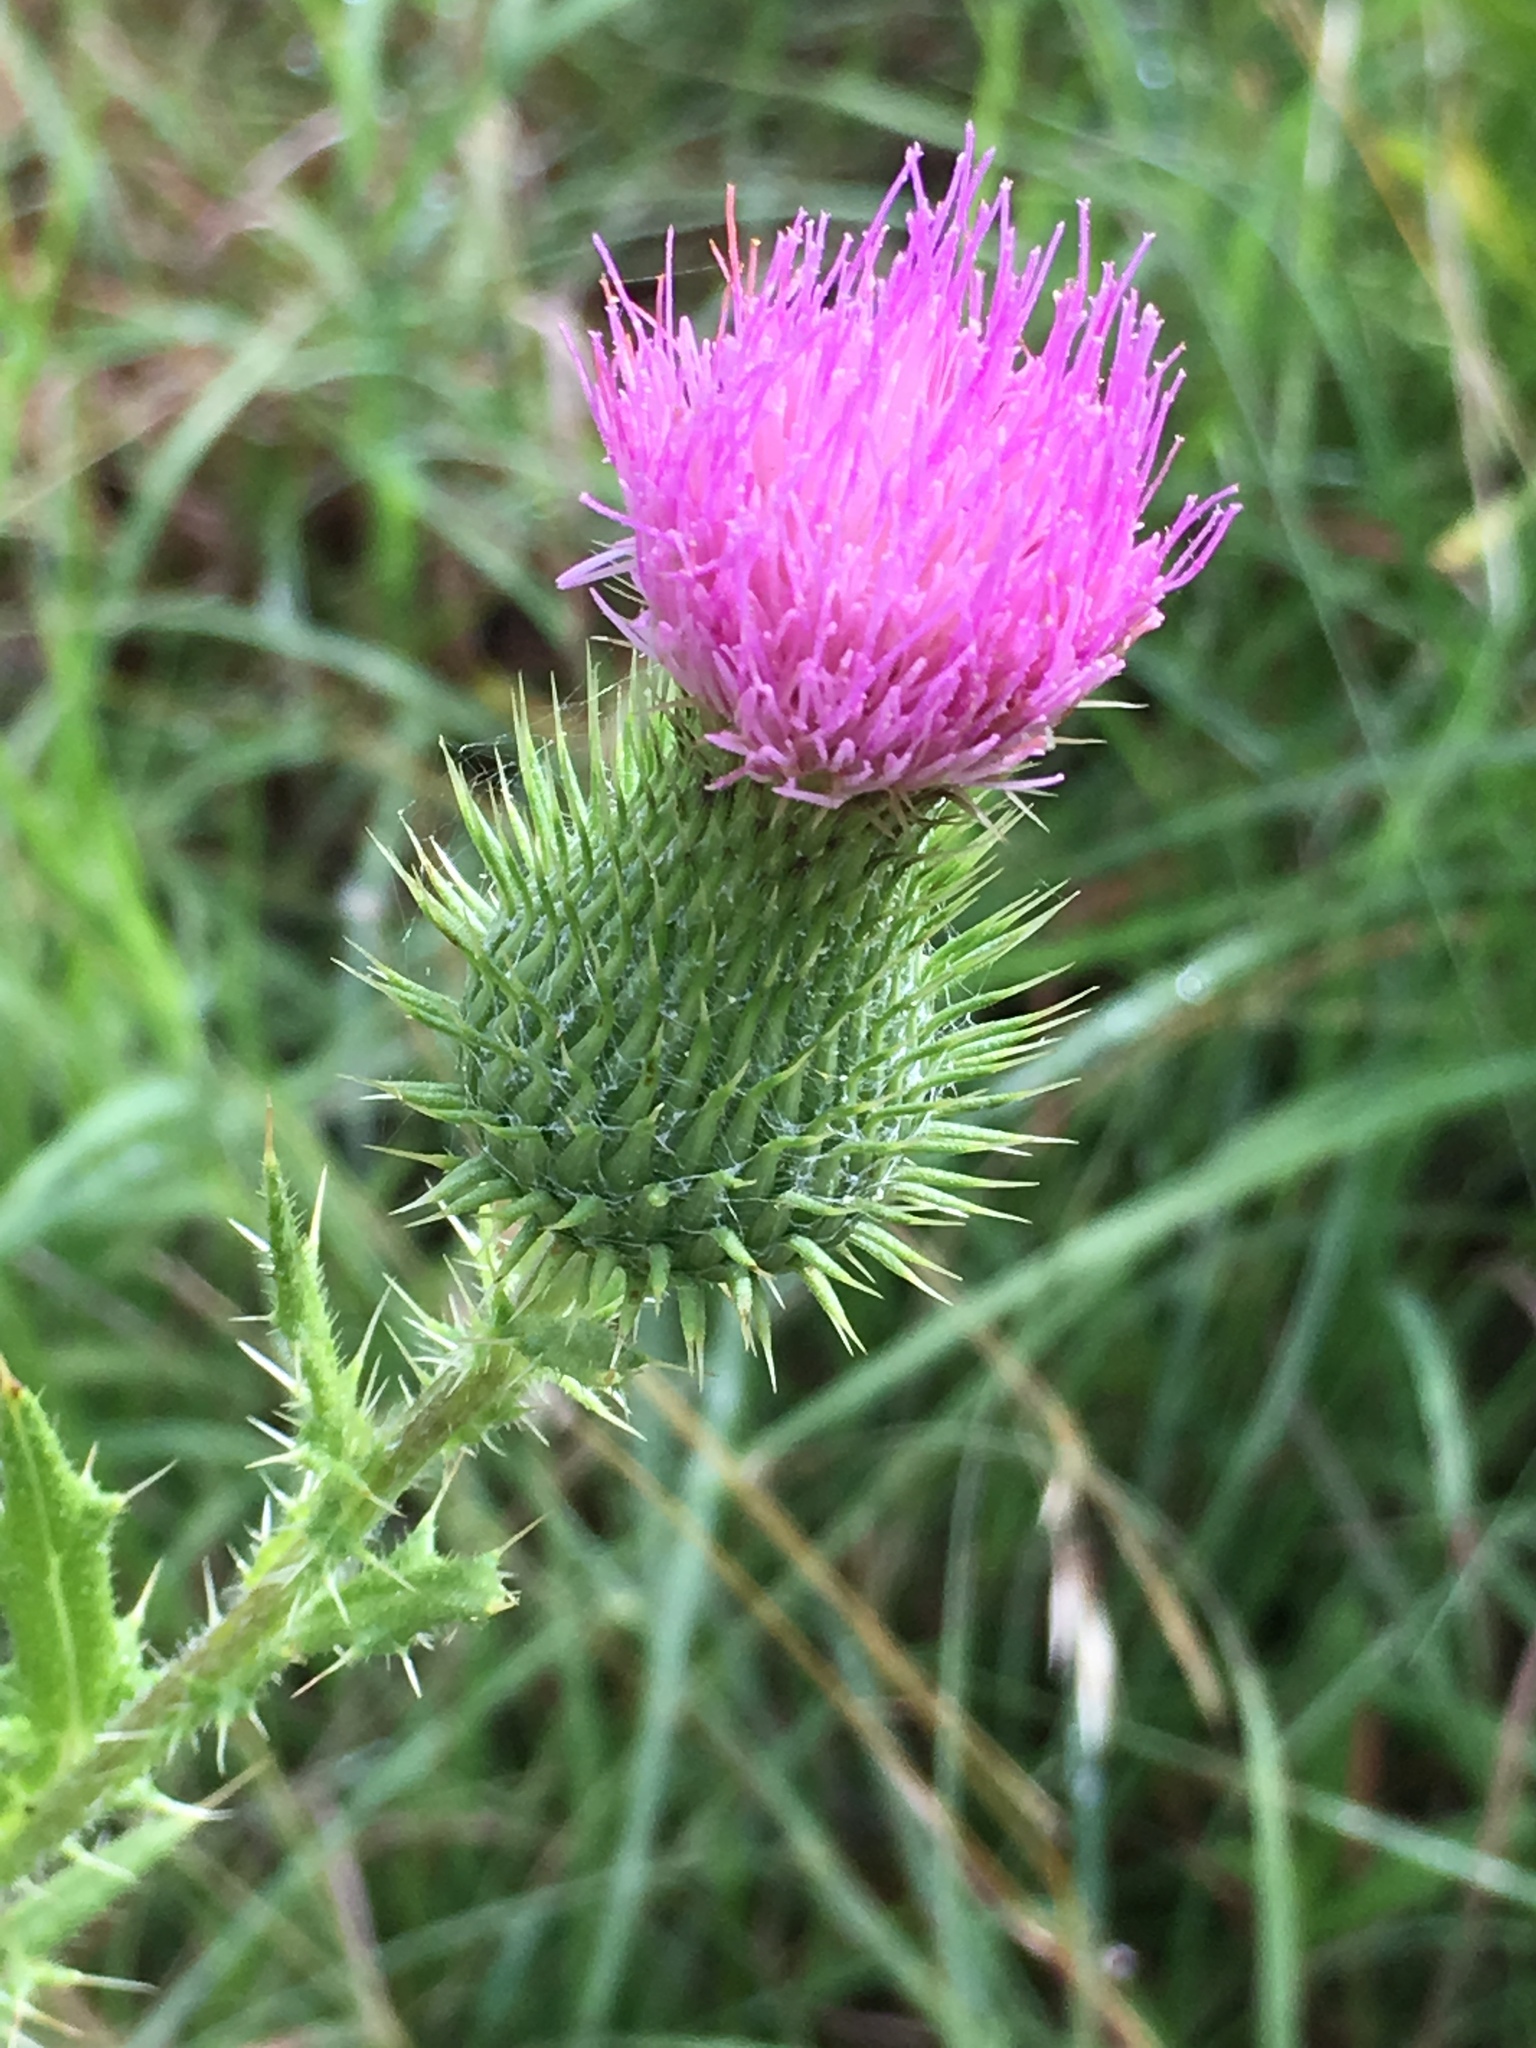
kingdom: Plantae
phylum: Tracheophyta
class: Magnoliopsida
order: Asterales
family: Asteraceae
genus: Cirsium
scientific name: Cirsium vulgare
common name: Bull thistle
